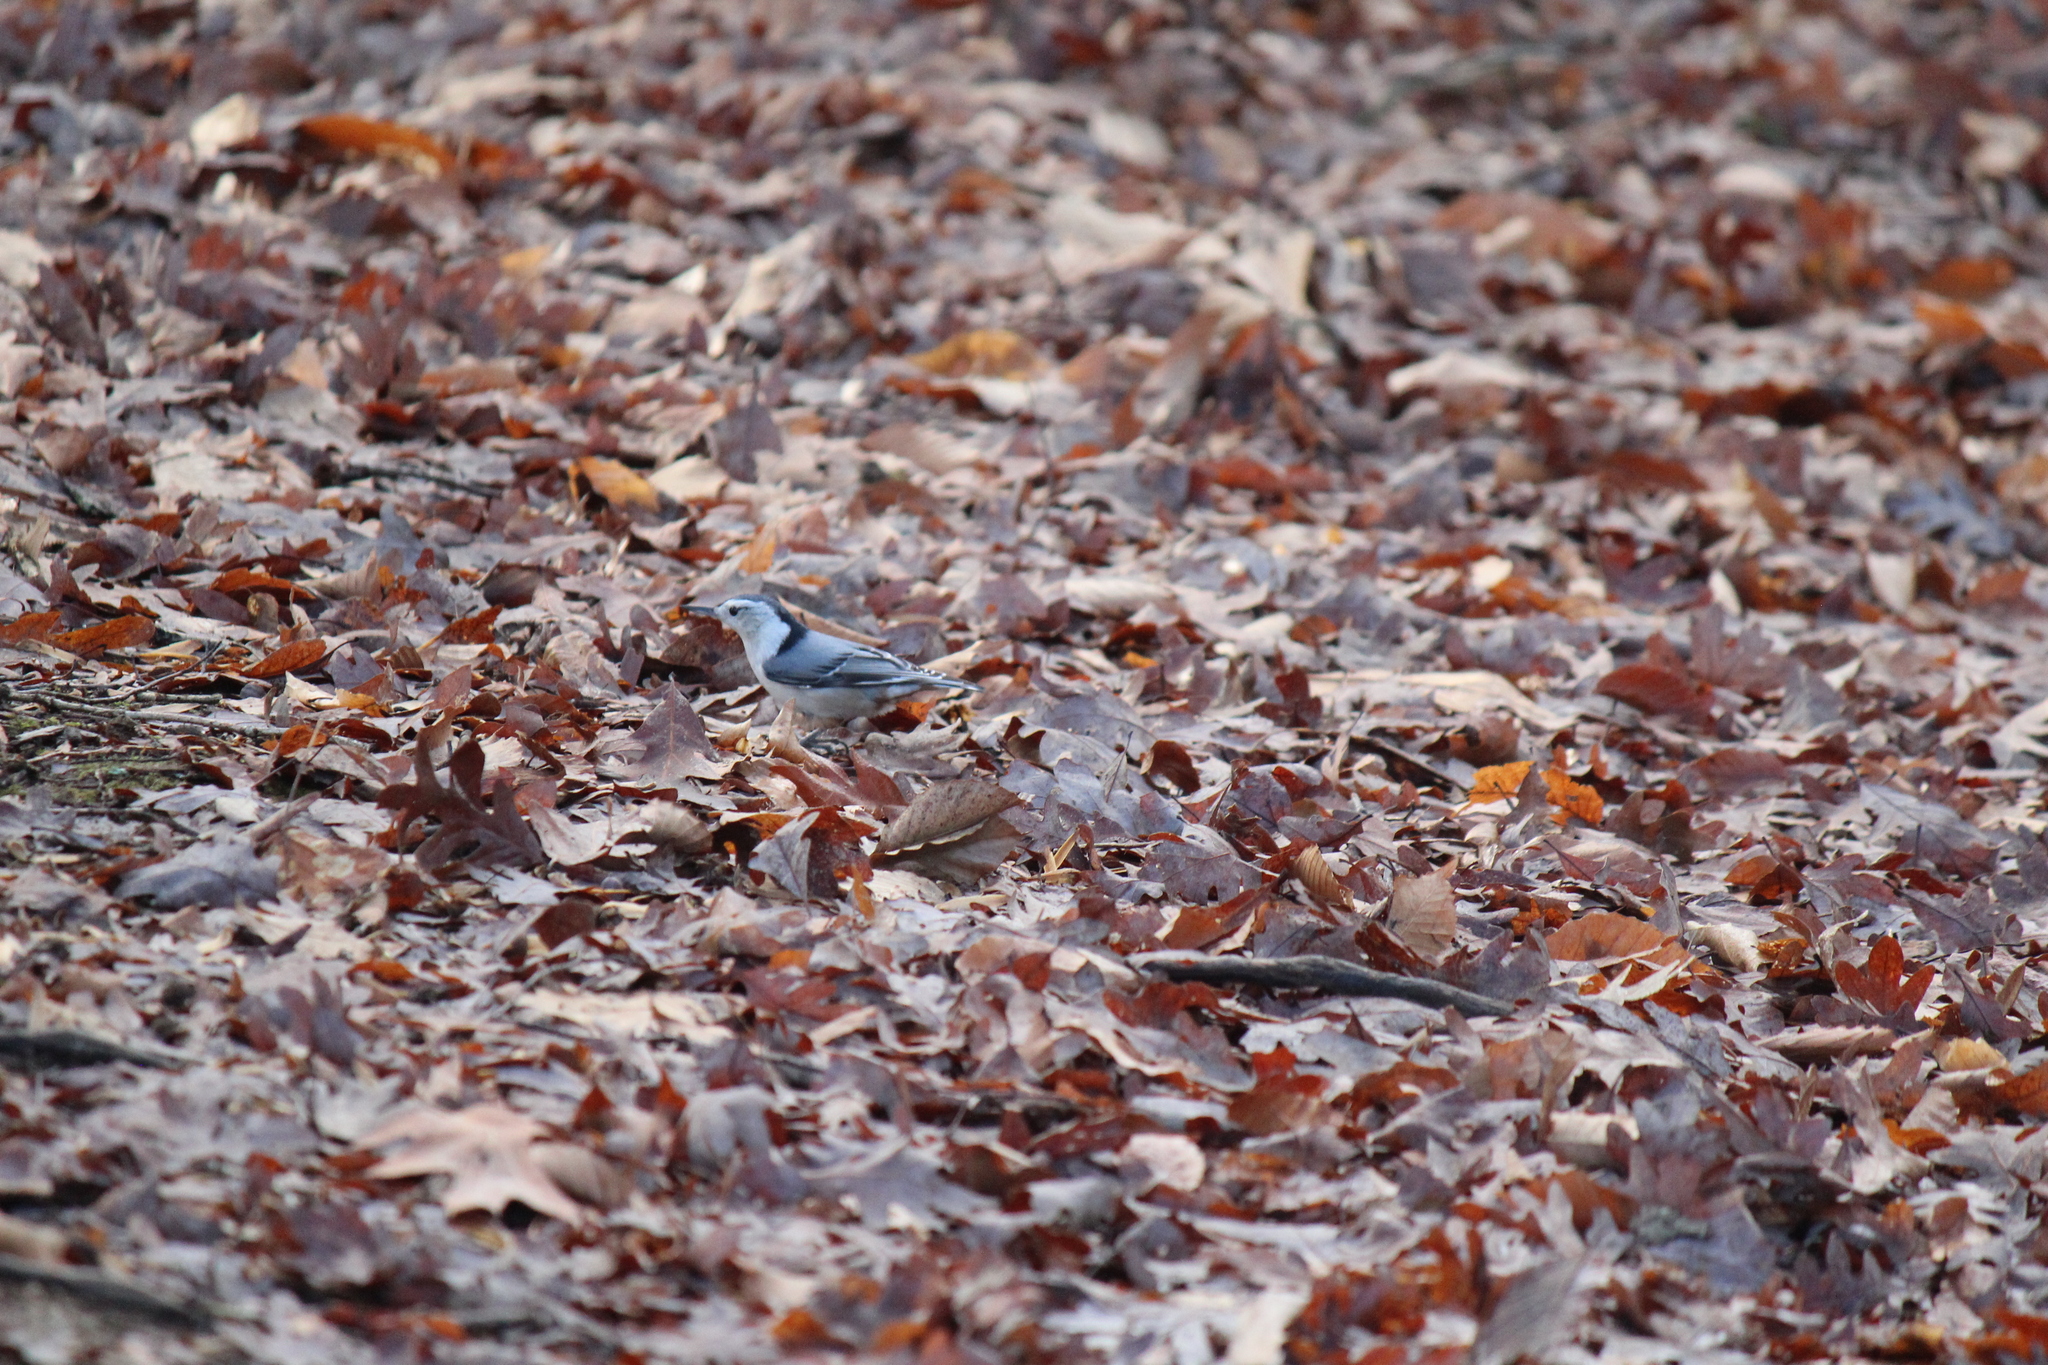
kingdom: Animalia
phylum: Chordata
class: Aves
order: Passeriformes
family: Sittidae
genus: Sitta
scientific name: Sitta carolinensis
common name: White-breasted nuthatch
